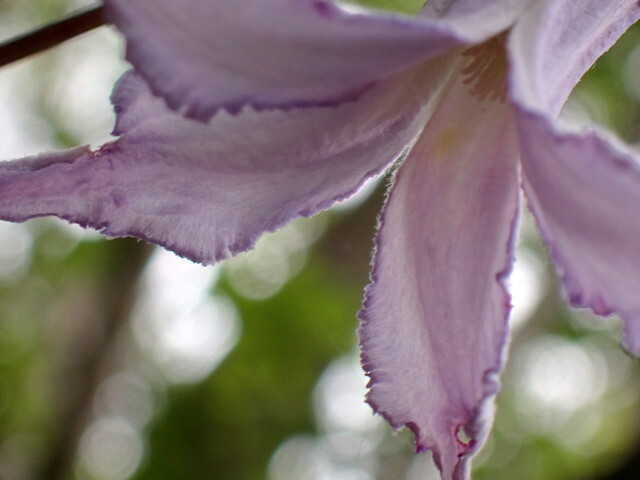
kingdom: Plantae
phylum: Tracheophyta
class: Magnoliopsida
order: Ranunculales
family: Ranunculaceae
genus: Clematis
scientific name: Clematis crispa
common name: Curly clematis
